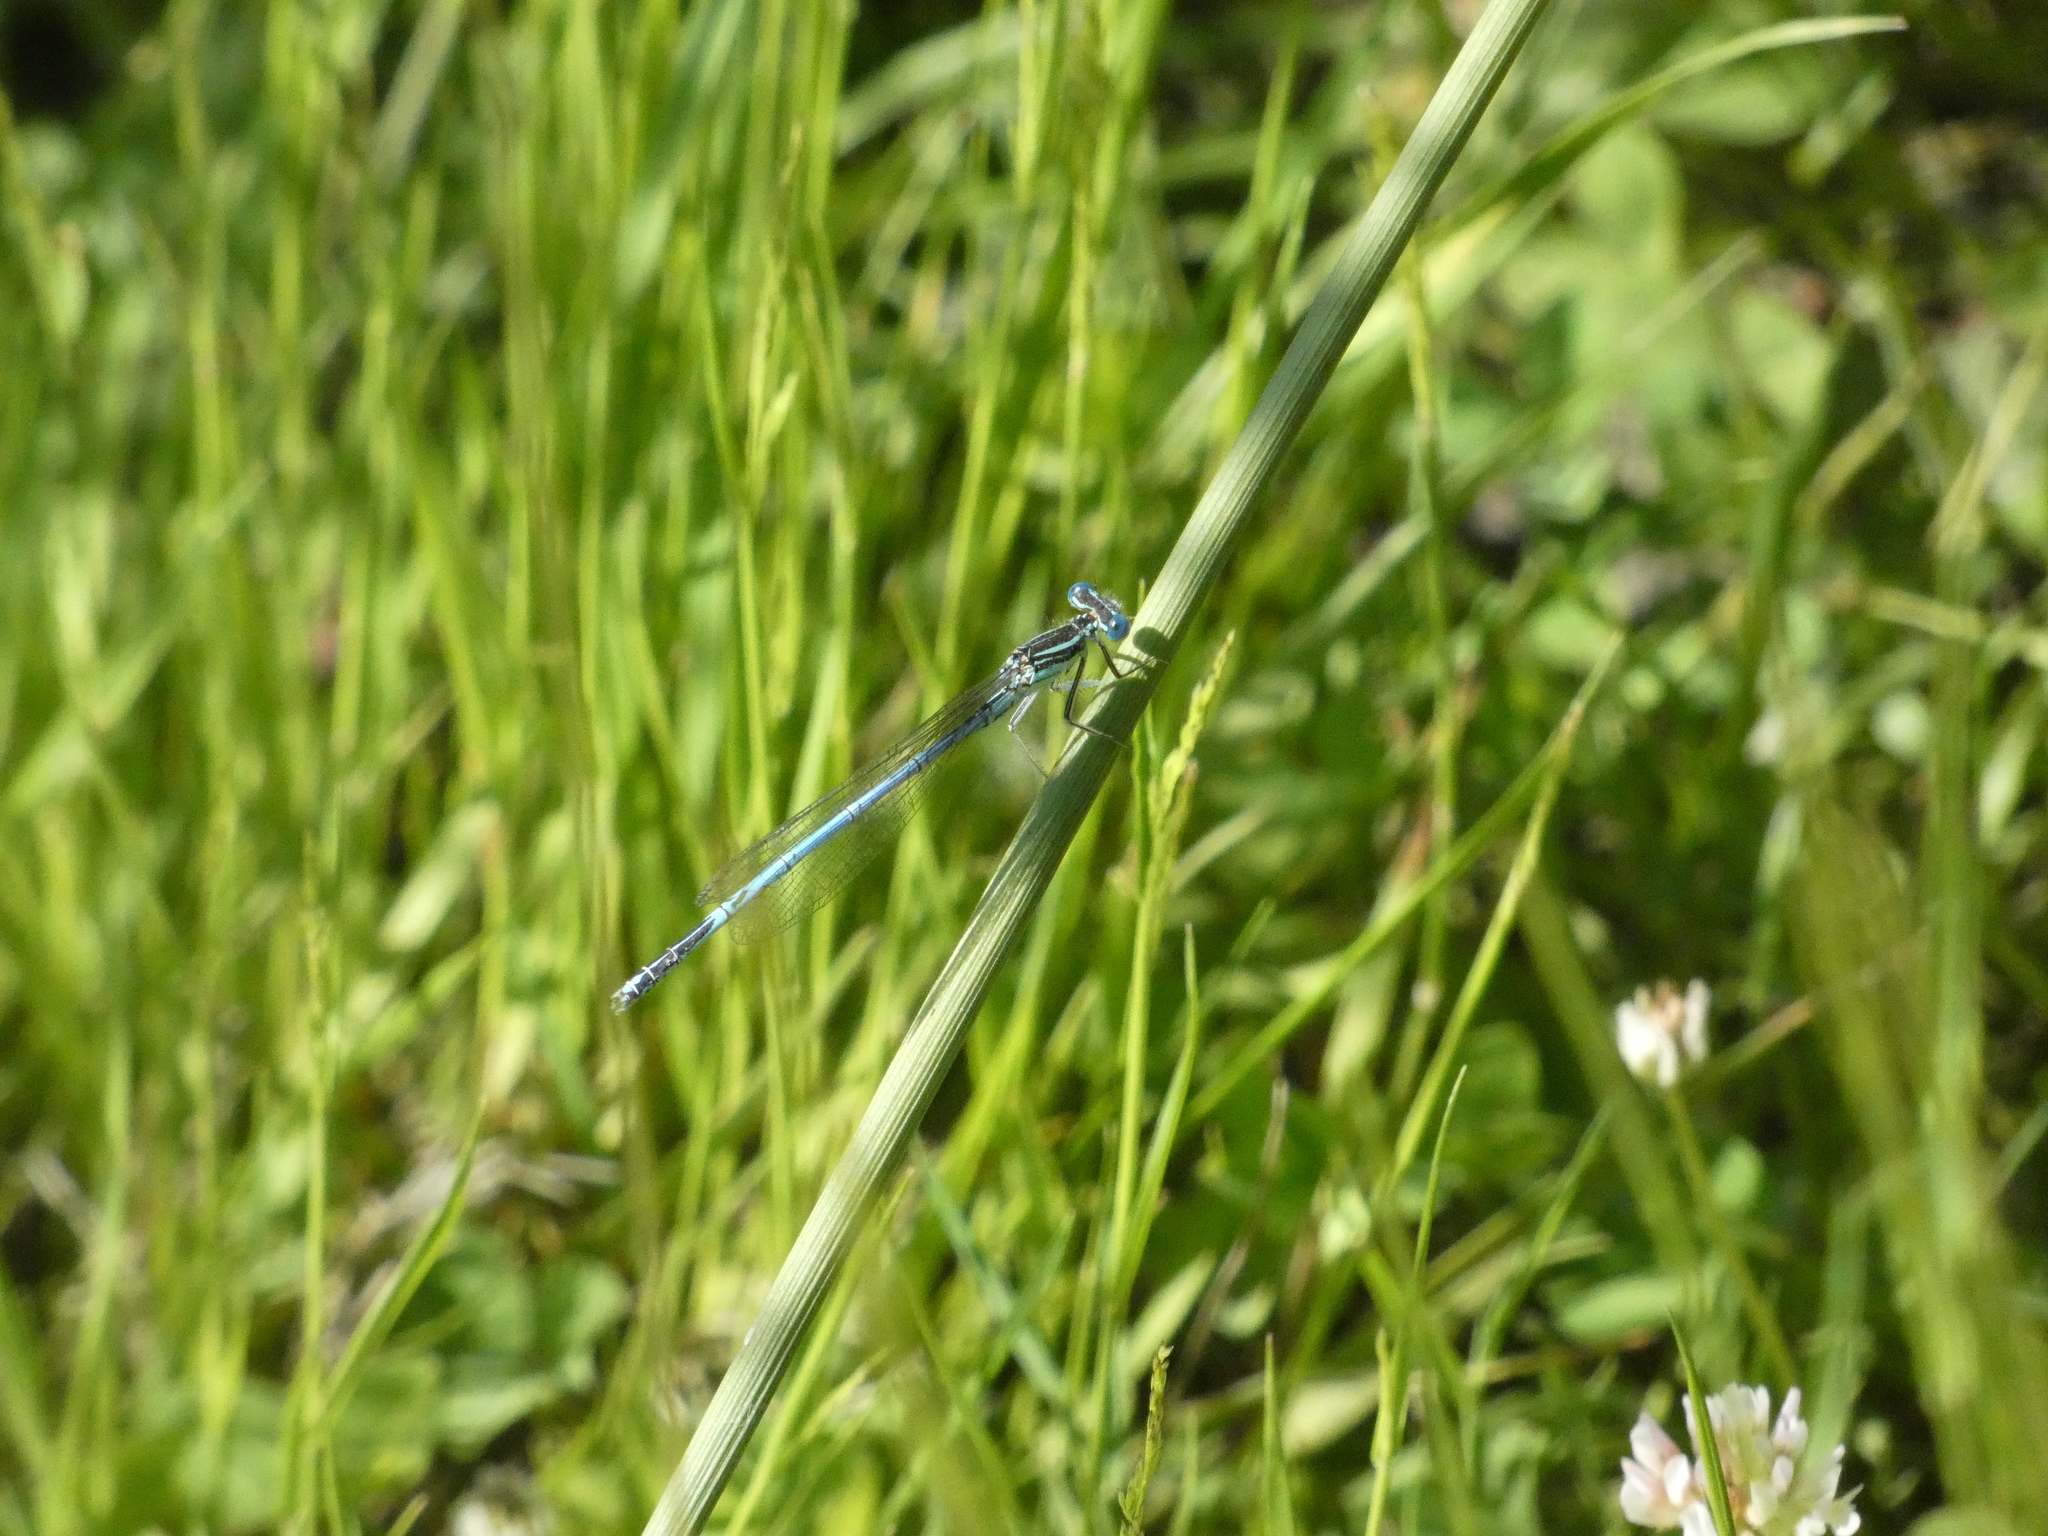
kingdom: Animalia
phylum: Arthropoda
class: Insecta
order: Odonata
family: Platycnemididae
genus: Platycnemis
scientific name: Platycnemis pennipes
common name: White-legged damselfly
